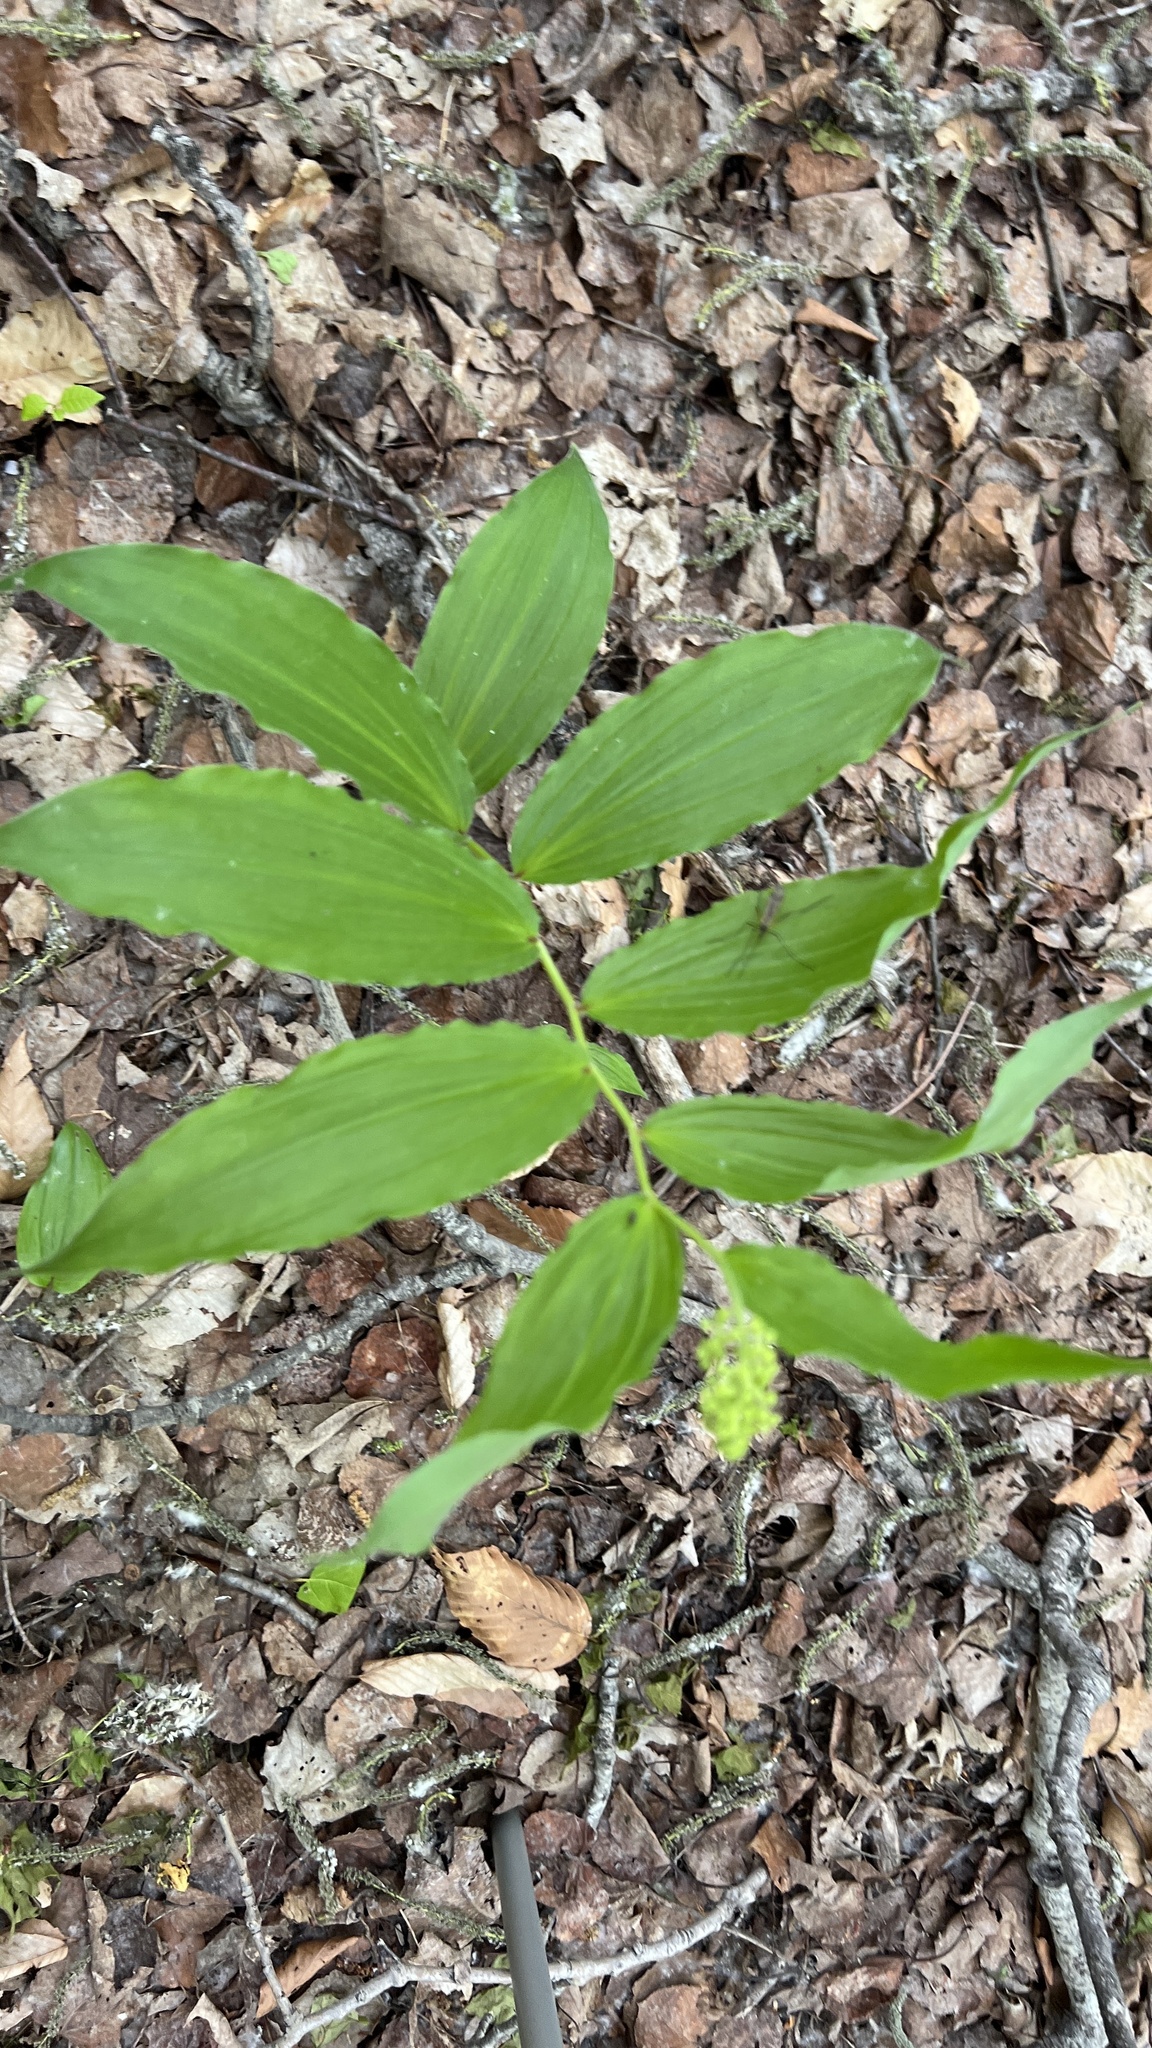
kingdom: Plantae
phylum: Tracheophyta
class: Liliopsida
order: Asparagales
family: Asparagaceae
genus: Maianthemum
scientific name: Maianthemum racemosum
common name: False spikenard
